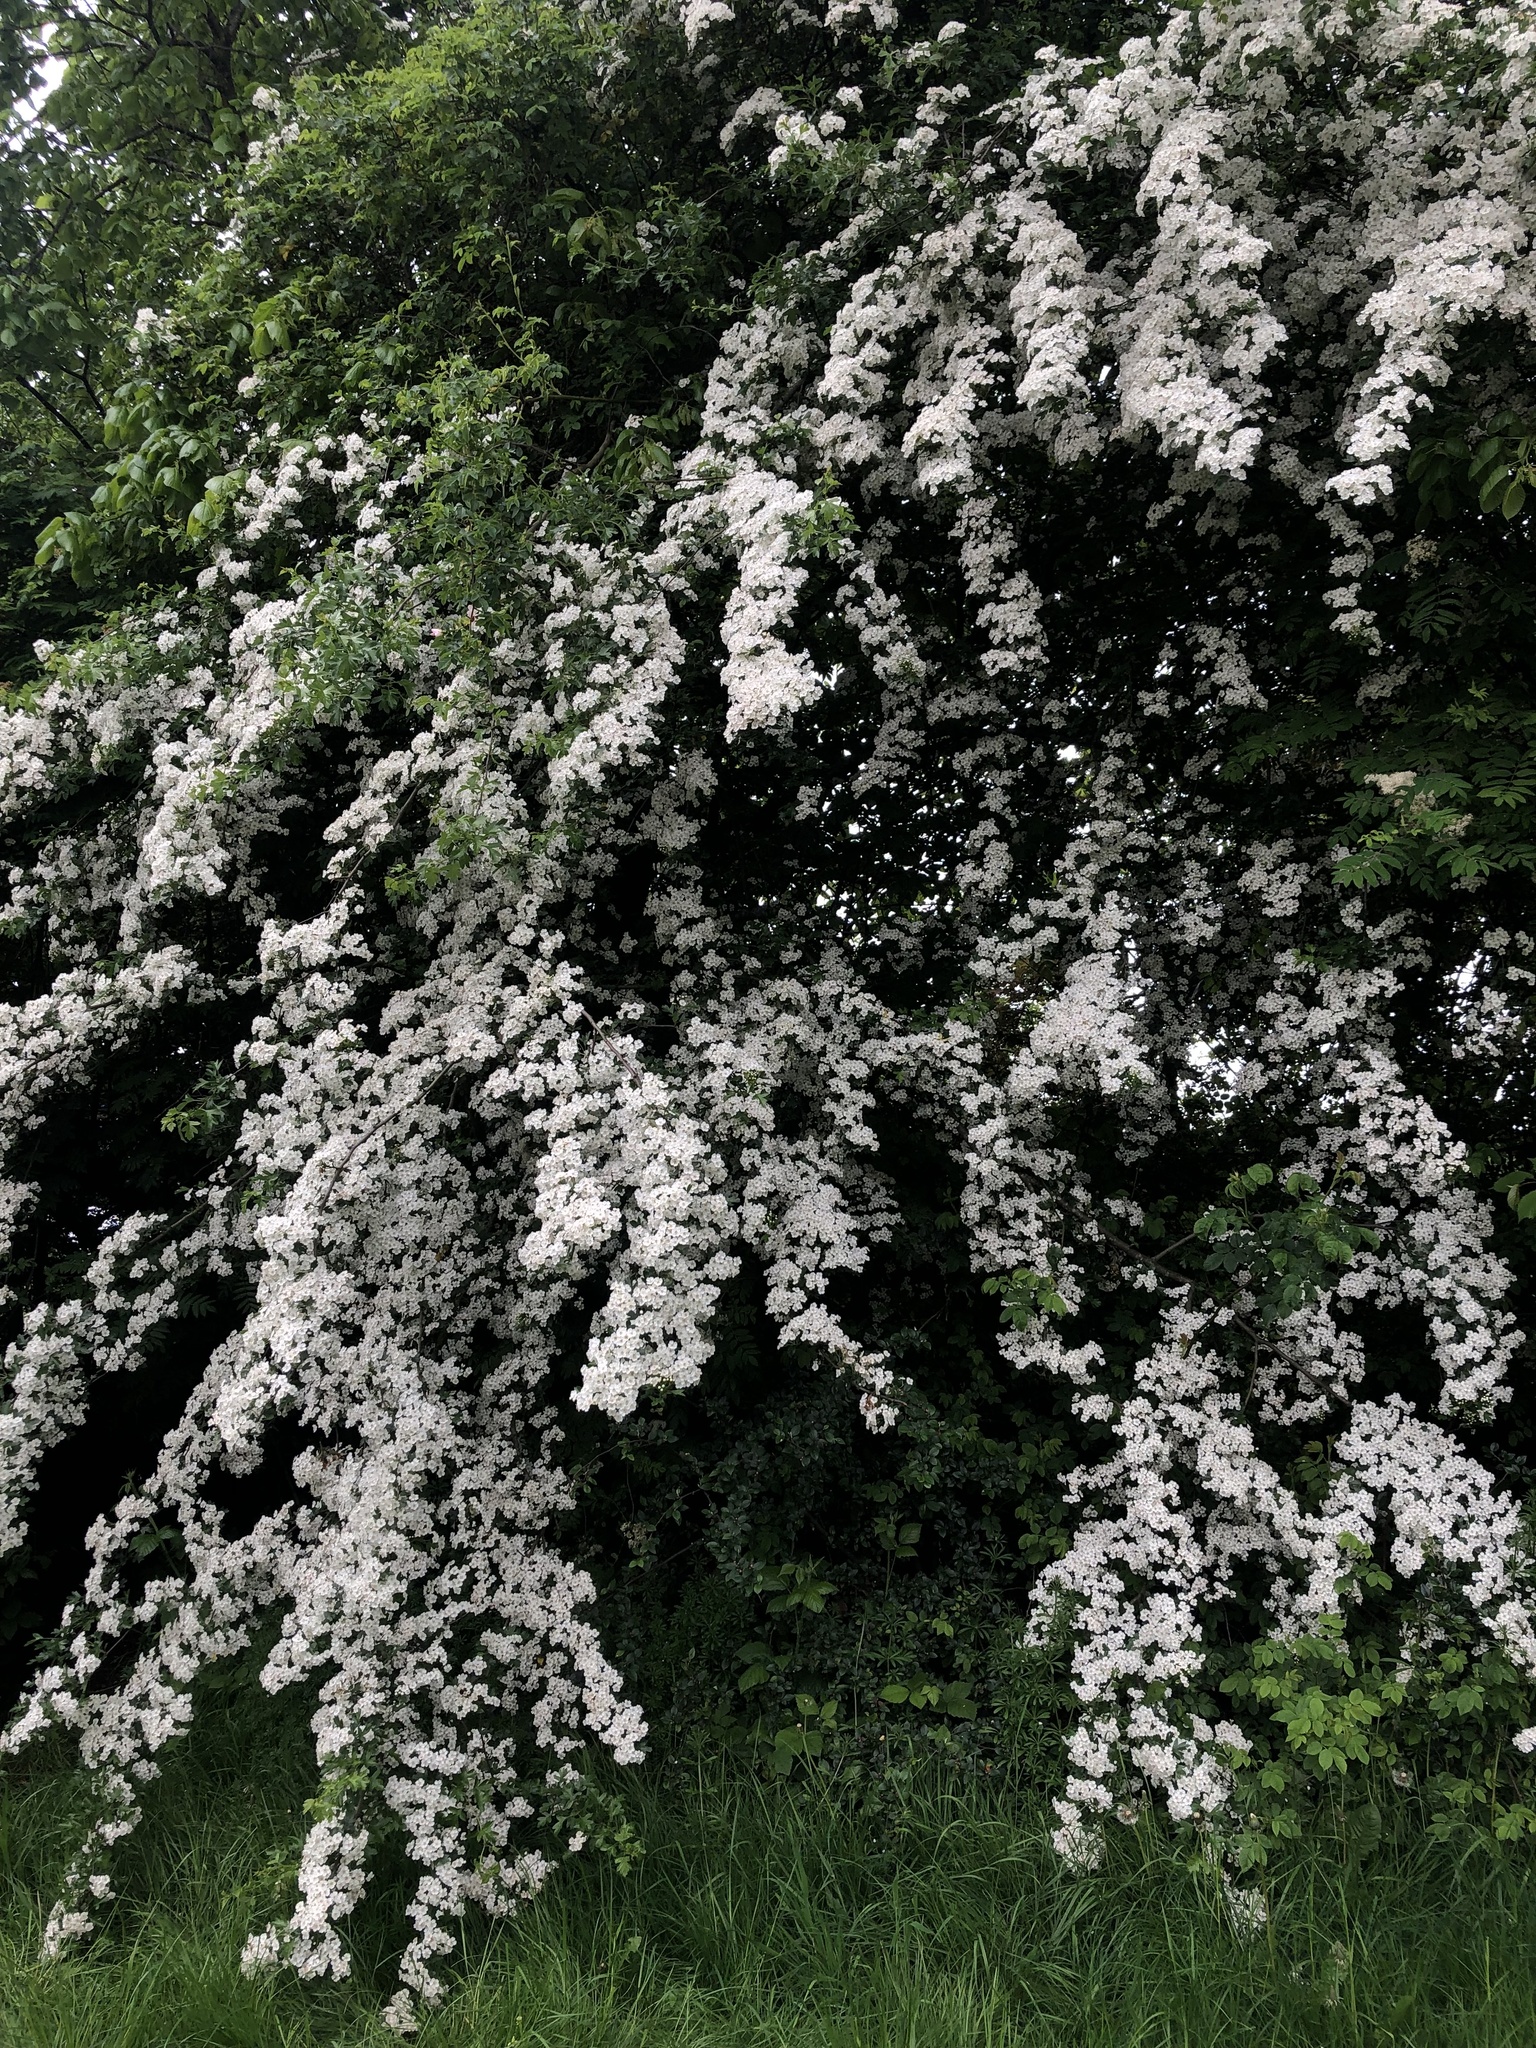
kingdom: Plantae
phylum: Tracheophyta
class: Magnoliopsida
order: Rosales
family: Rosaceae
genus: Crataegus
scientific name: Crataegus monogyna
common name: Hawthorn
